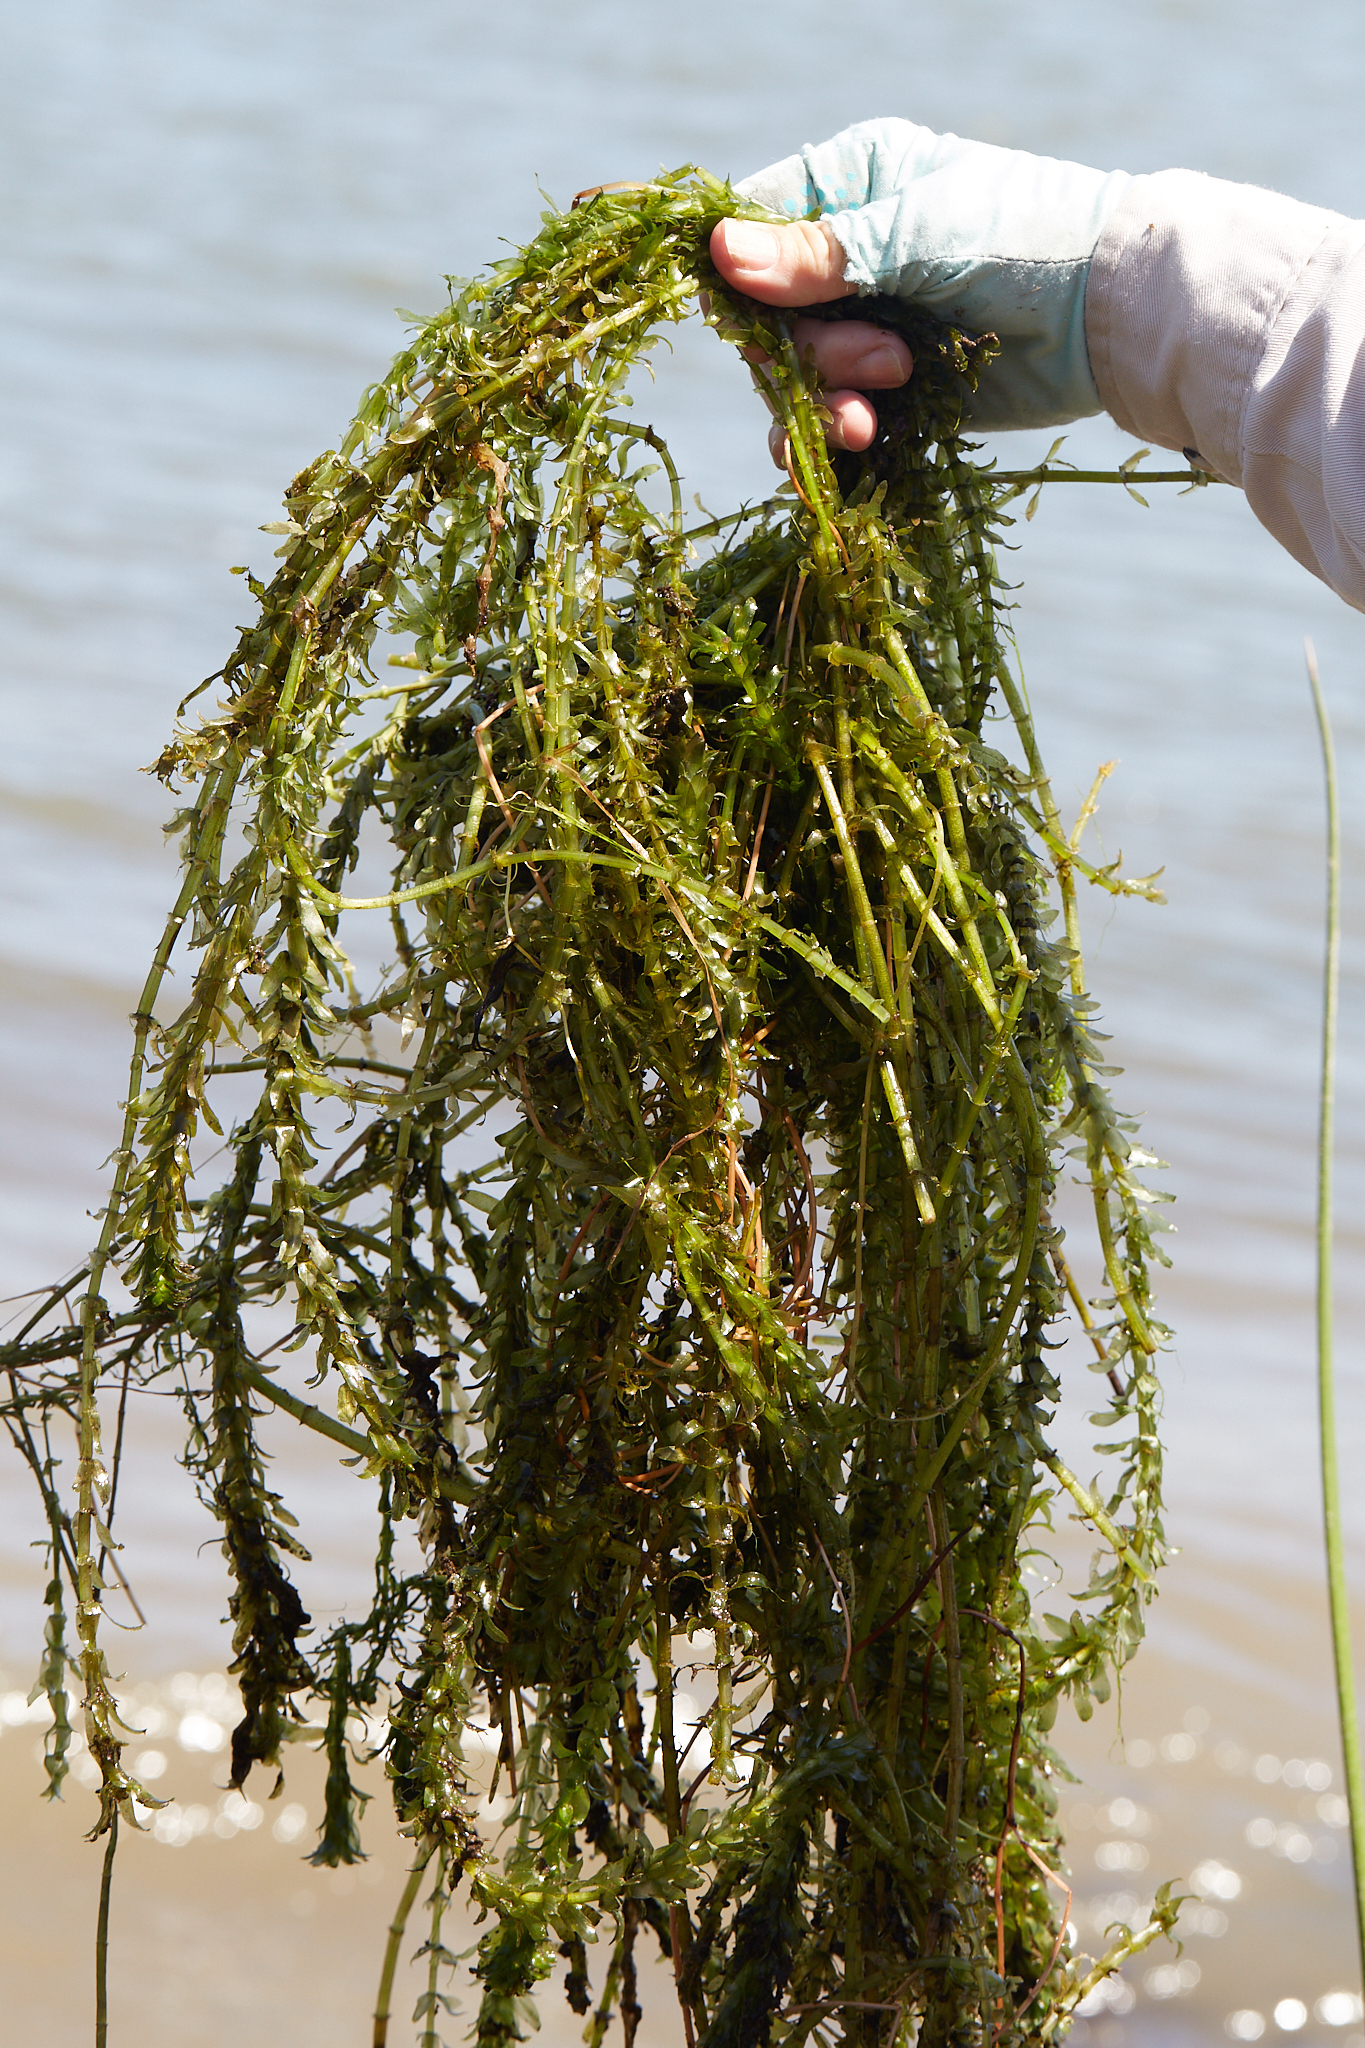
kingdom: Plantae
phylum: Tracheophyta
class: Liliopsida
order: Alismatales
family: Hydrocharitaceae
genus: Elodea
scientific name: Elodea densa
